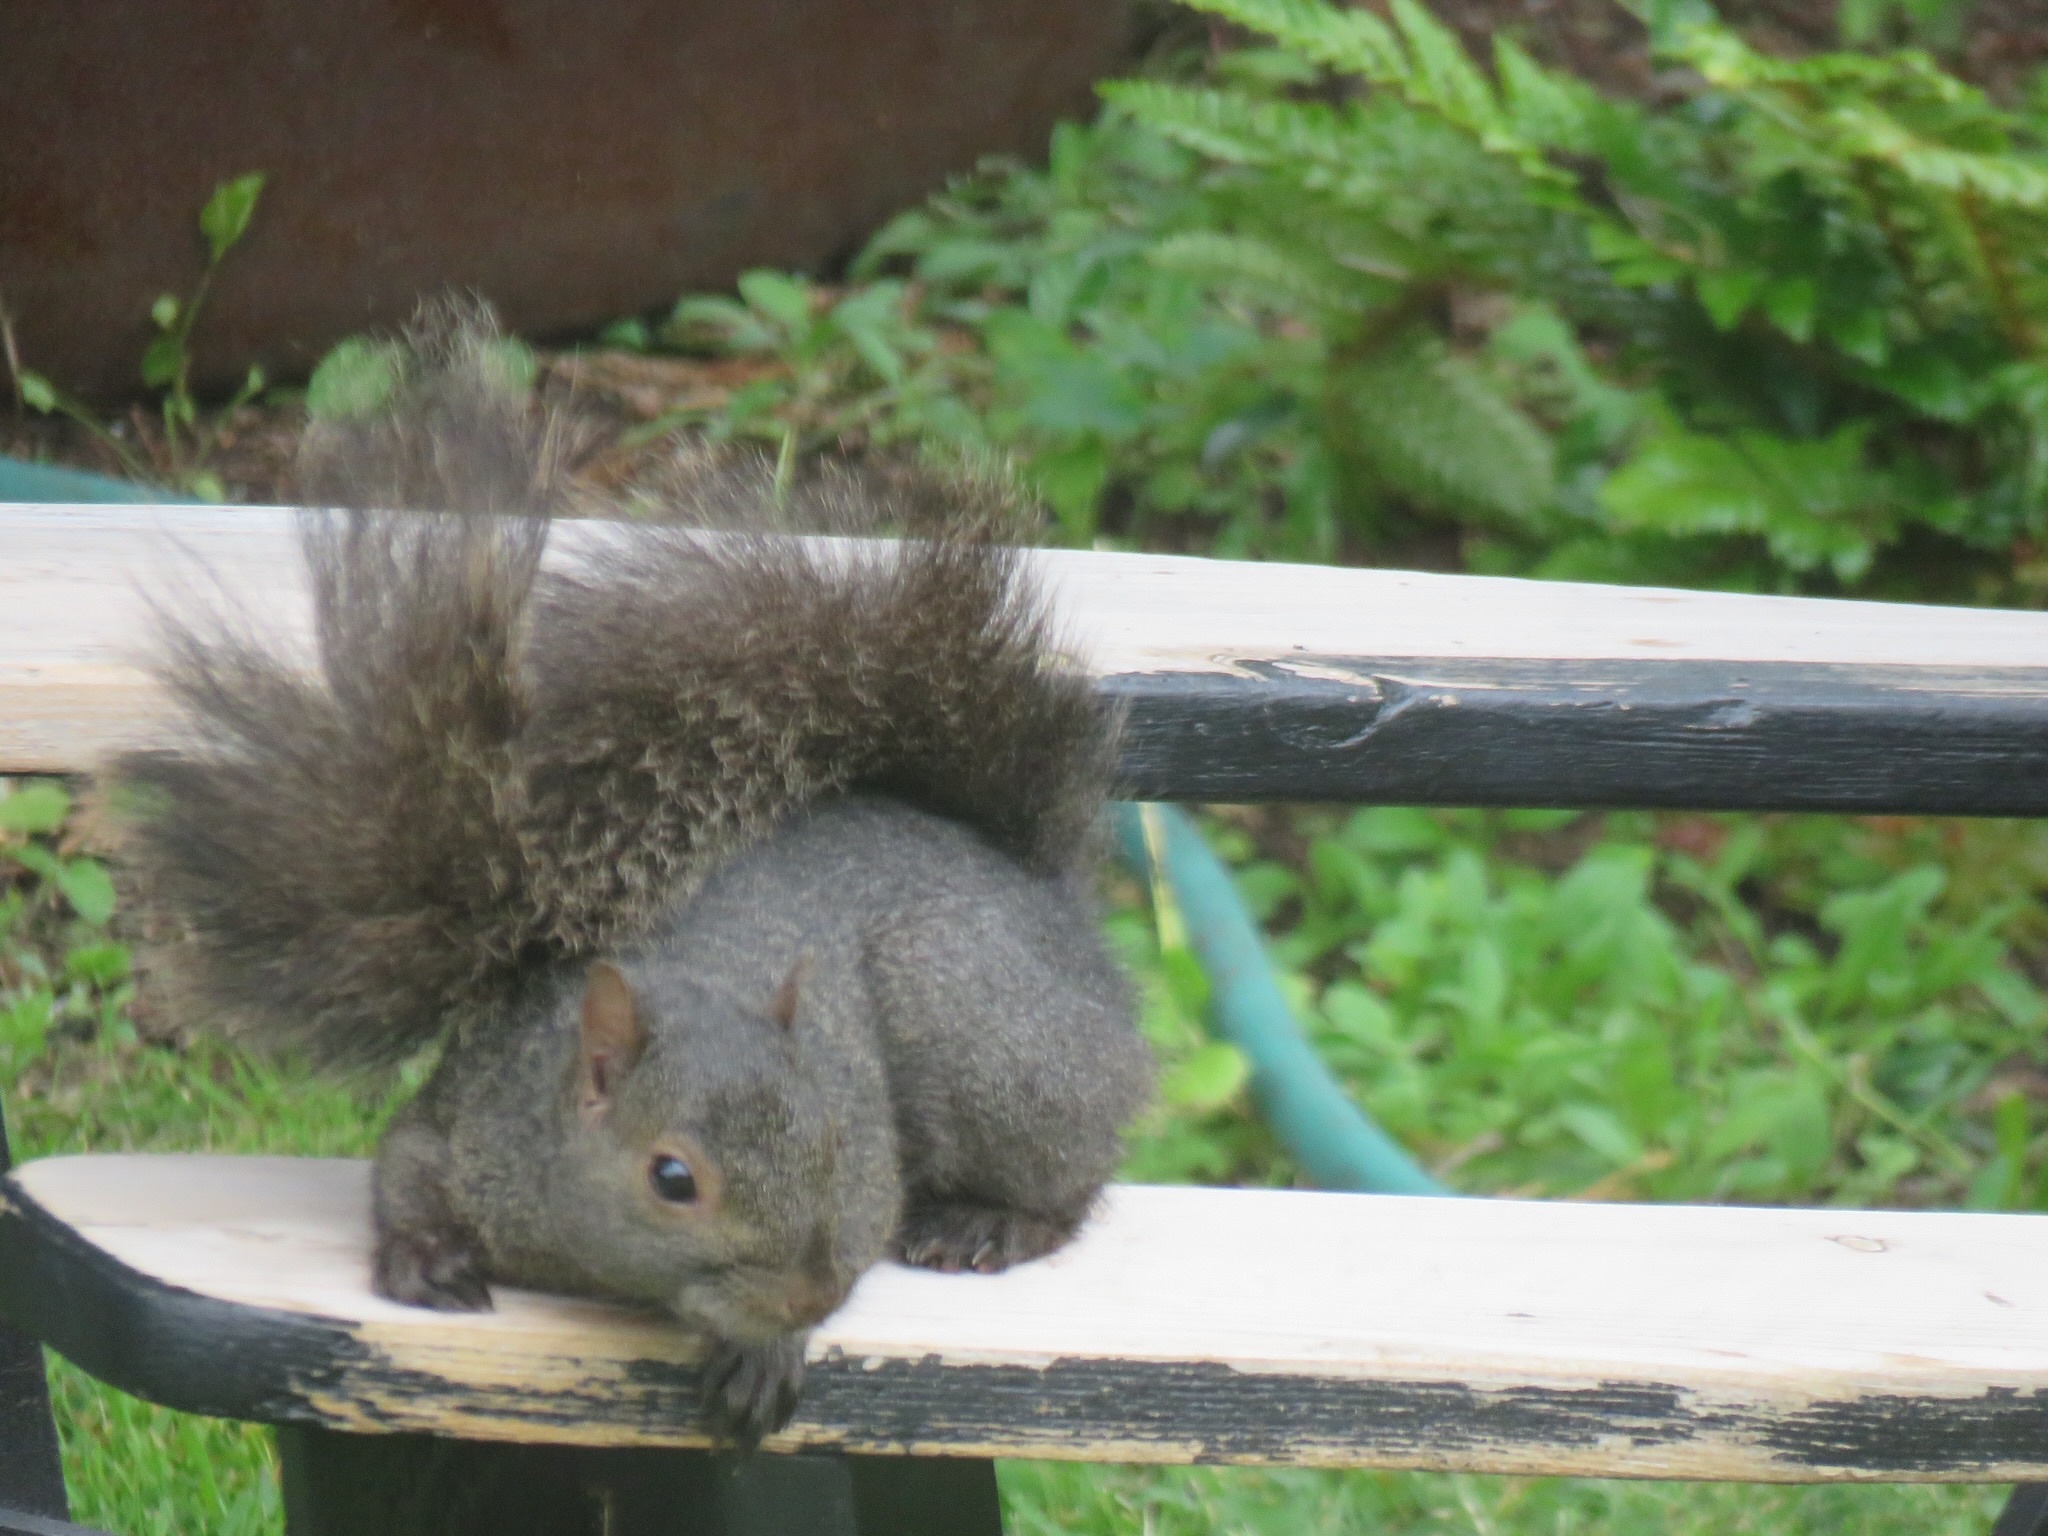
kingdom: Animalia
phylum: Chordata
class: Mammalia
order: Rodentia
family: Sciuridae
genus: Sciurus
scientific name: Sciurus carolinensis
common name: Eastern gray squirrel
